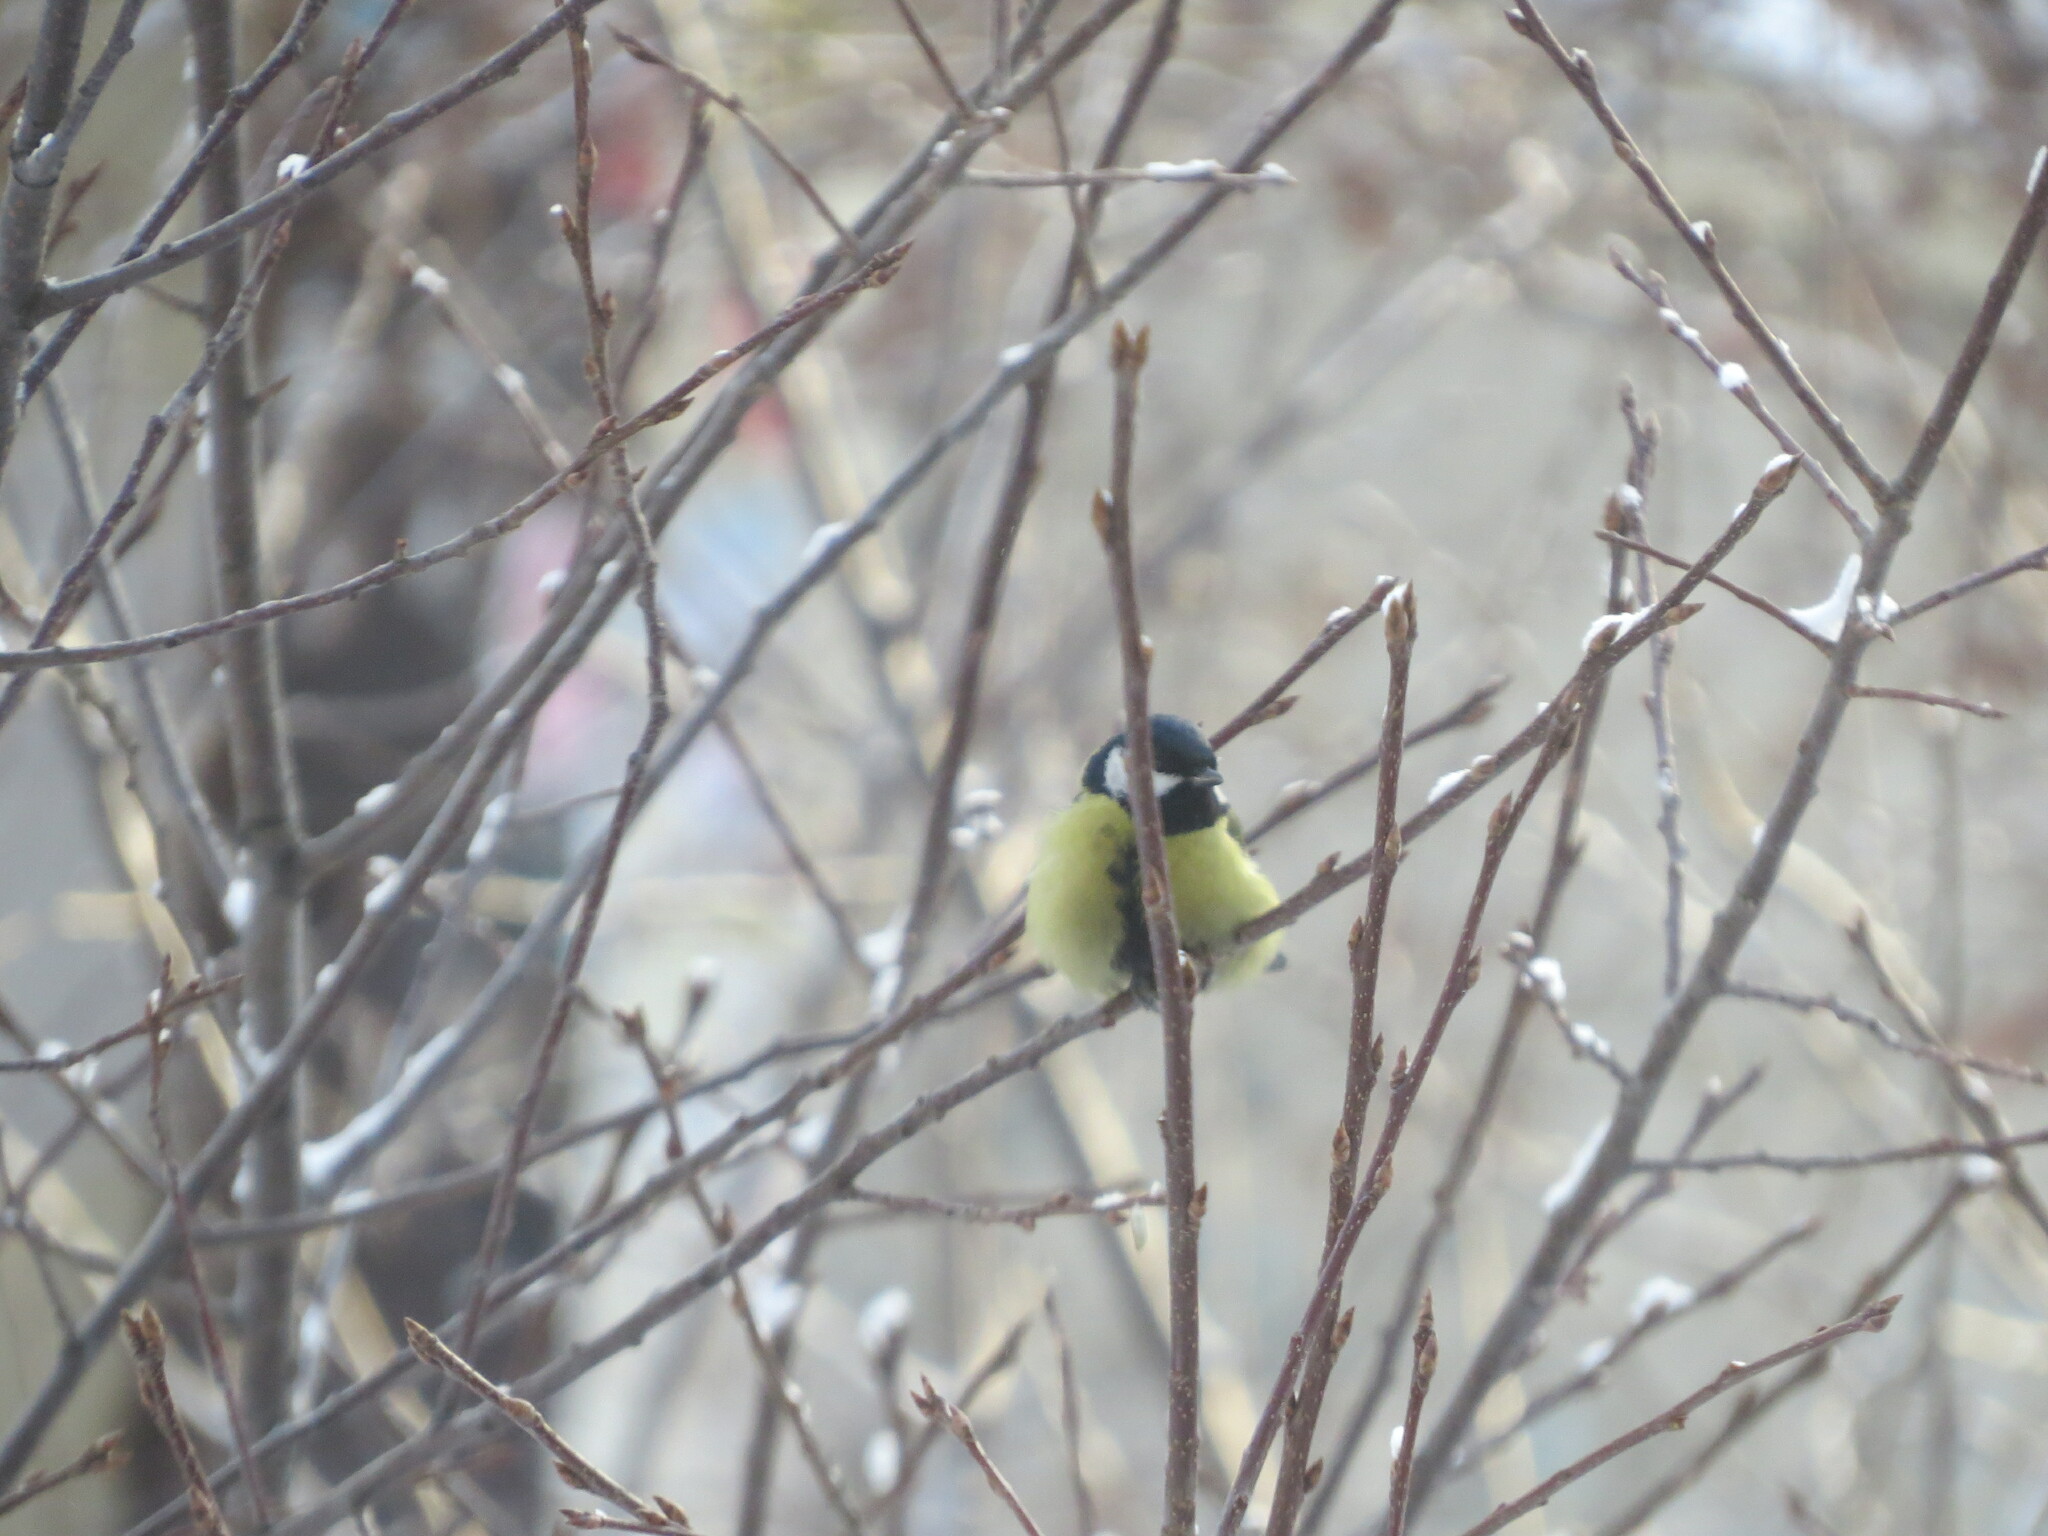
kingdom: Animalia
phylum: Chordata
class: Aves
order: Passeriformes
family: Paridae
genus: Parus
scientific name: Parus major
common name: Great tit
